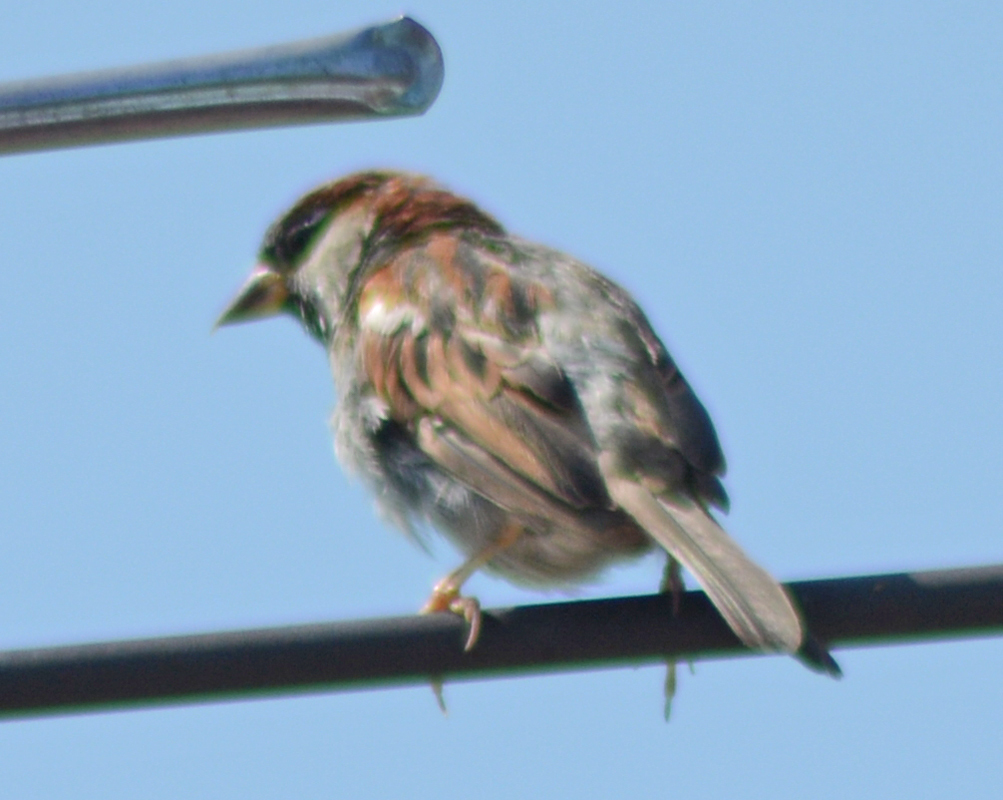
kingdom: Animalia
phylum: Chordata
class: Aves
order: Passeriformes
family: Passeridae
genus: Passer
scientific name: Passer domesticus
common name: House sparrow
